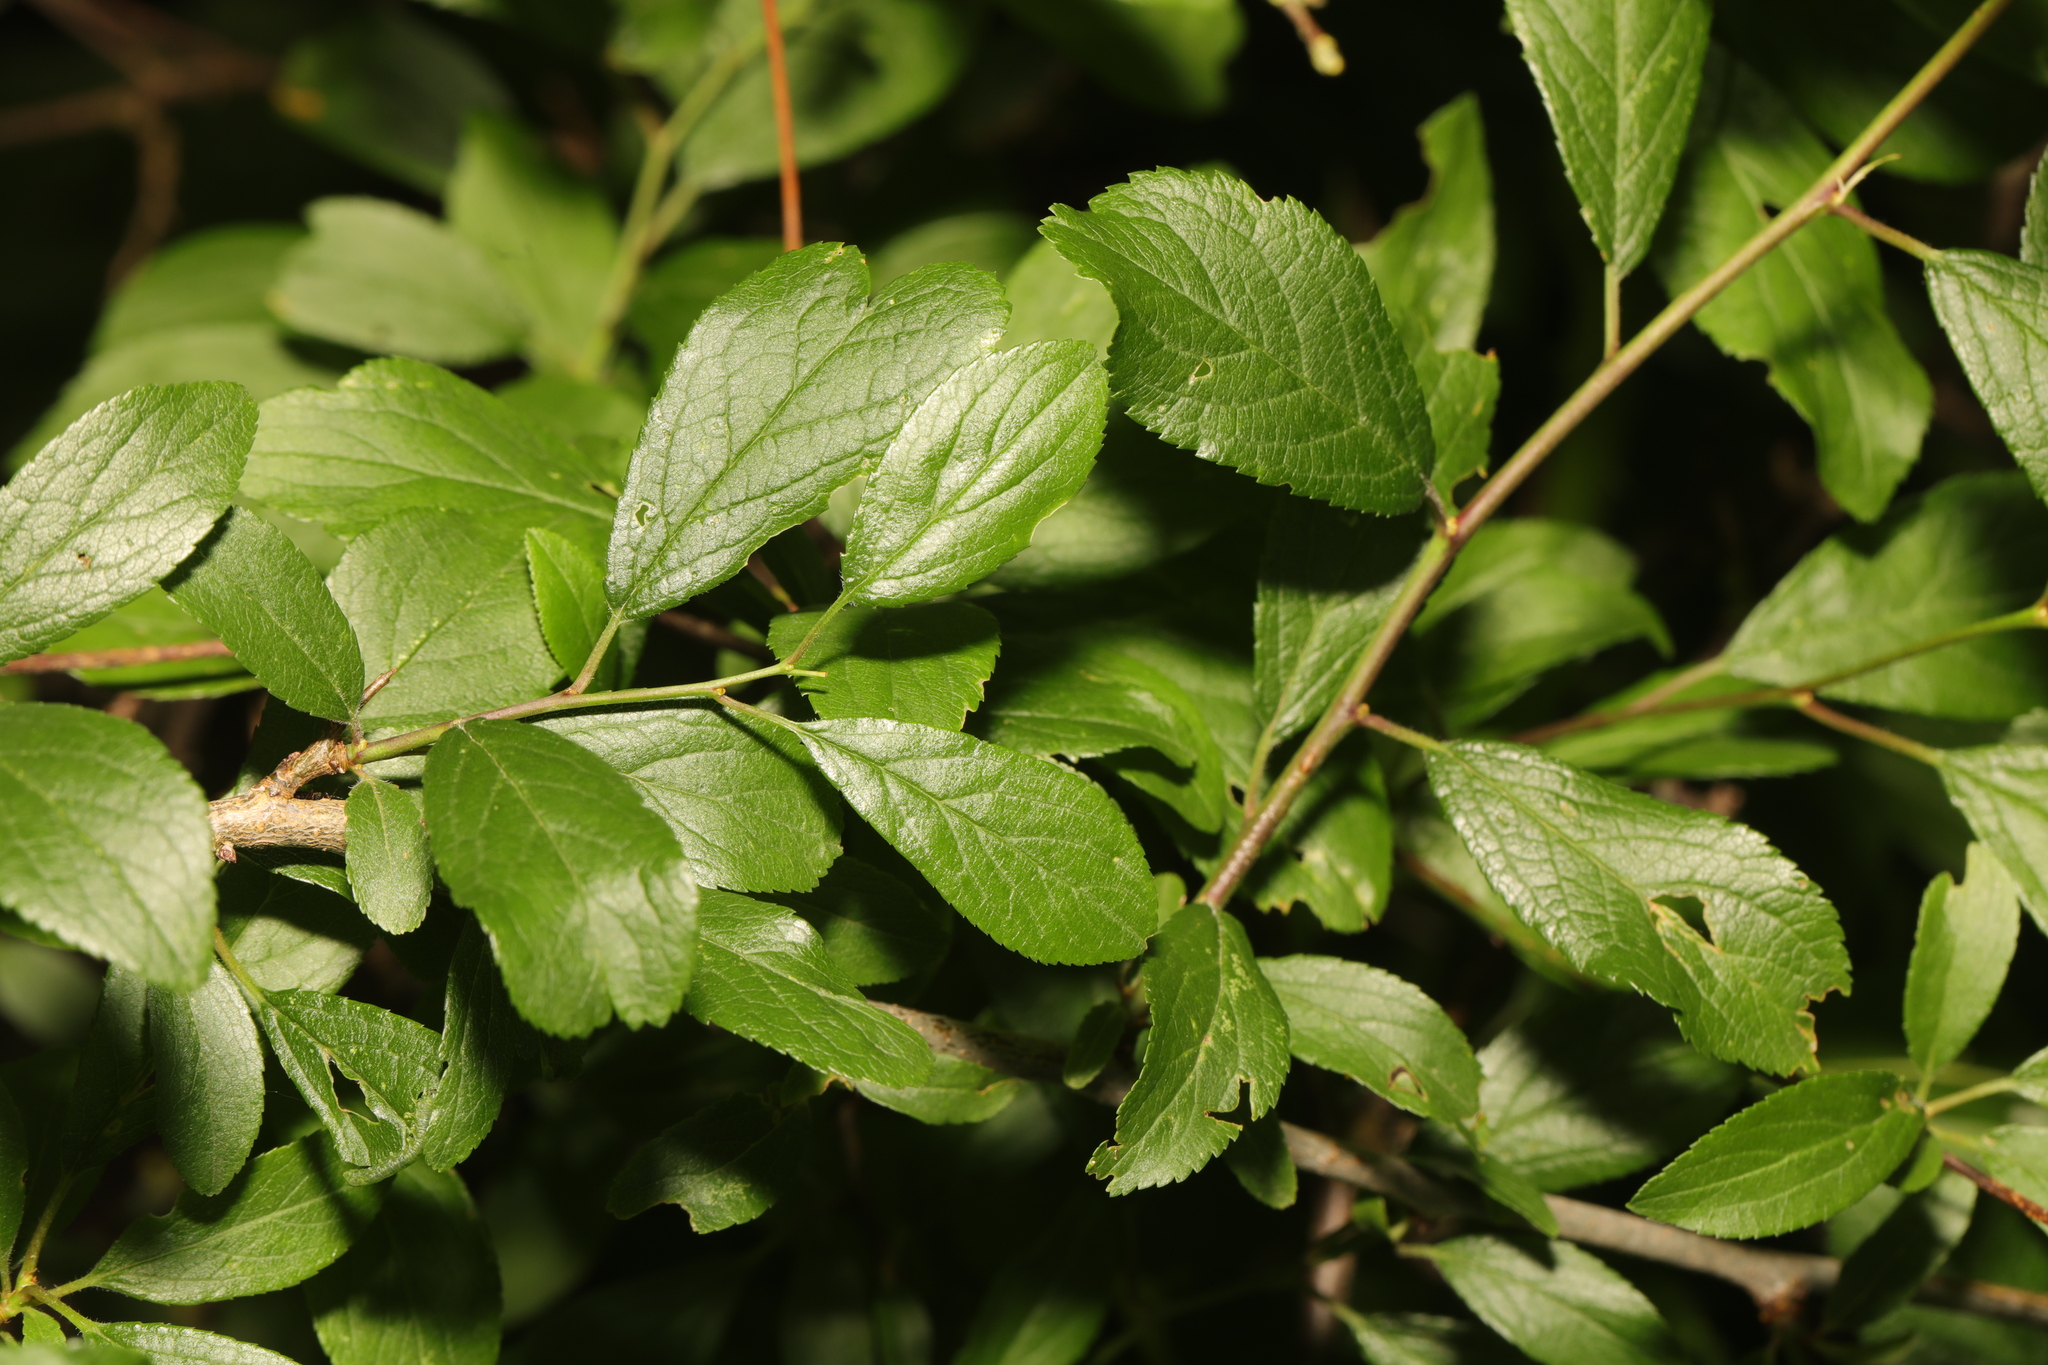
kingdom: Plantae
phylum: Tracheophyta
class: Magnoliopsida
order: Rosales
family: Rosaceae
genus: Prunus
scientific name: Prunus spinosa
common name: Blackthorn
